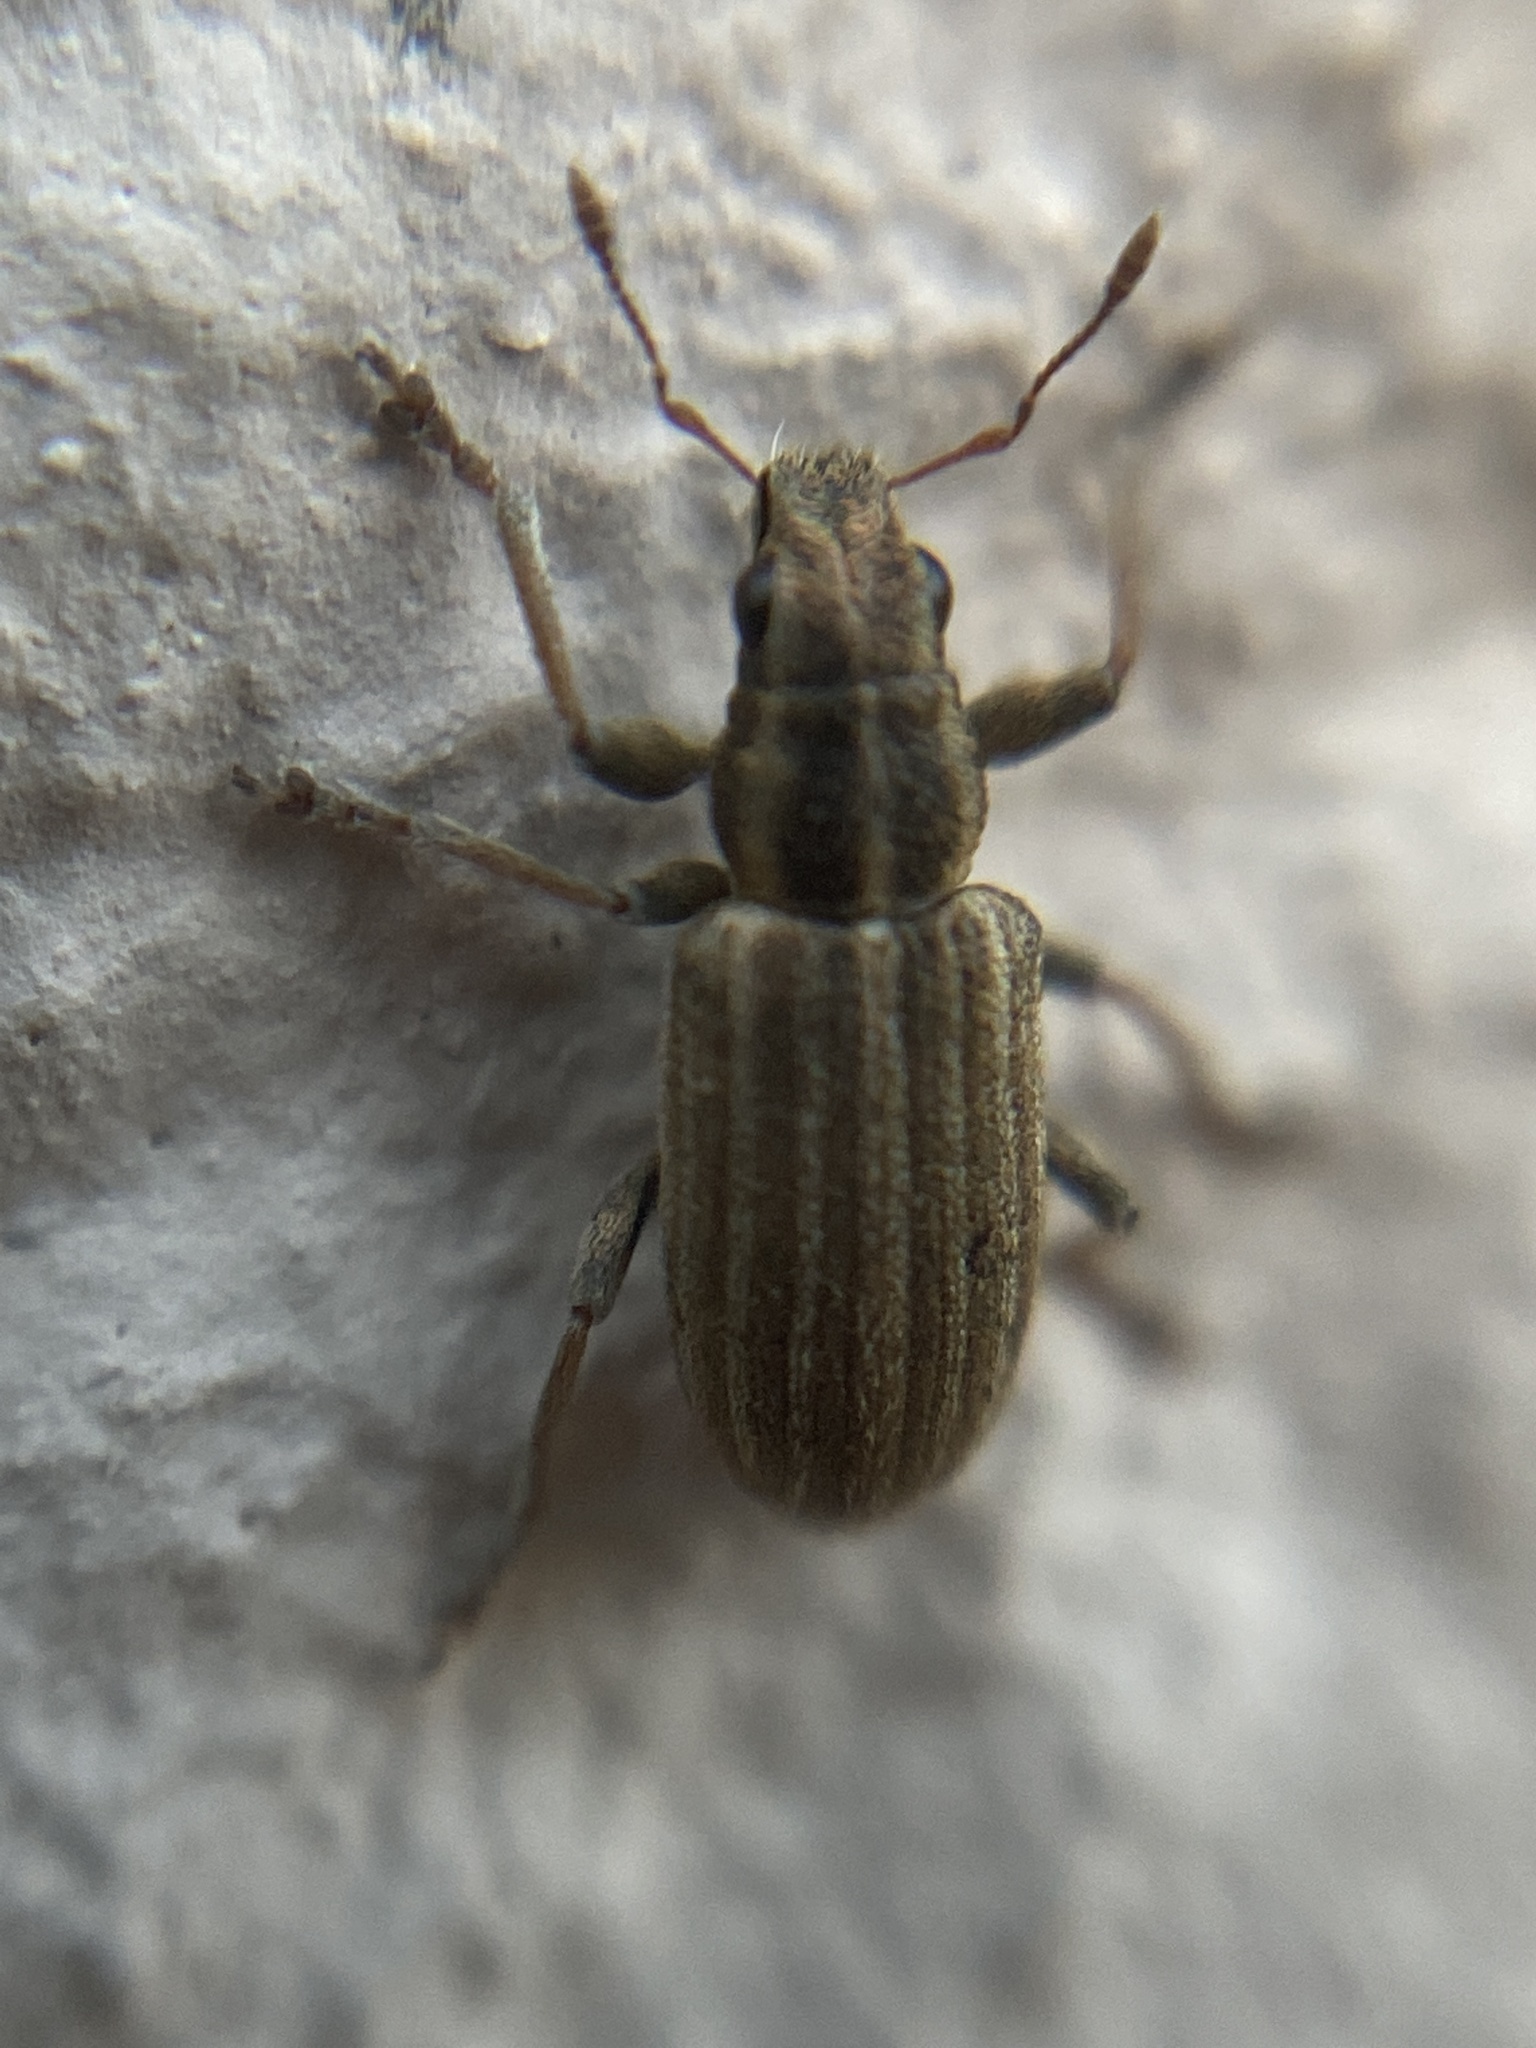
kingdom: Animalia
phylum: Arthropoda
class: Insecta
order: Coleoptera
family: Curculionidae
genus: Sitona
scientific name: Sitona lineatus
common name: Weevil
